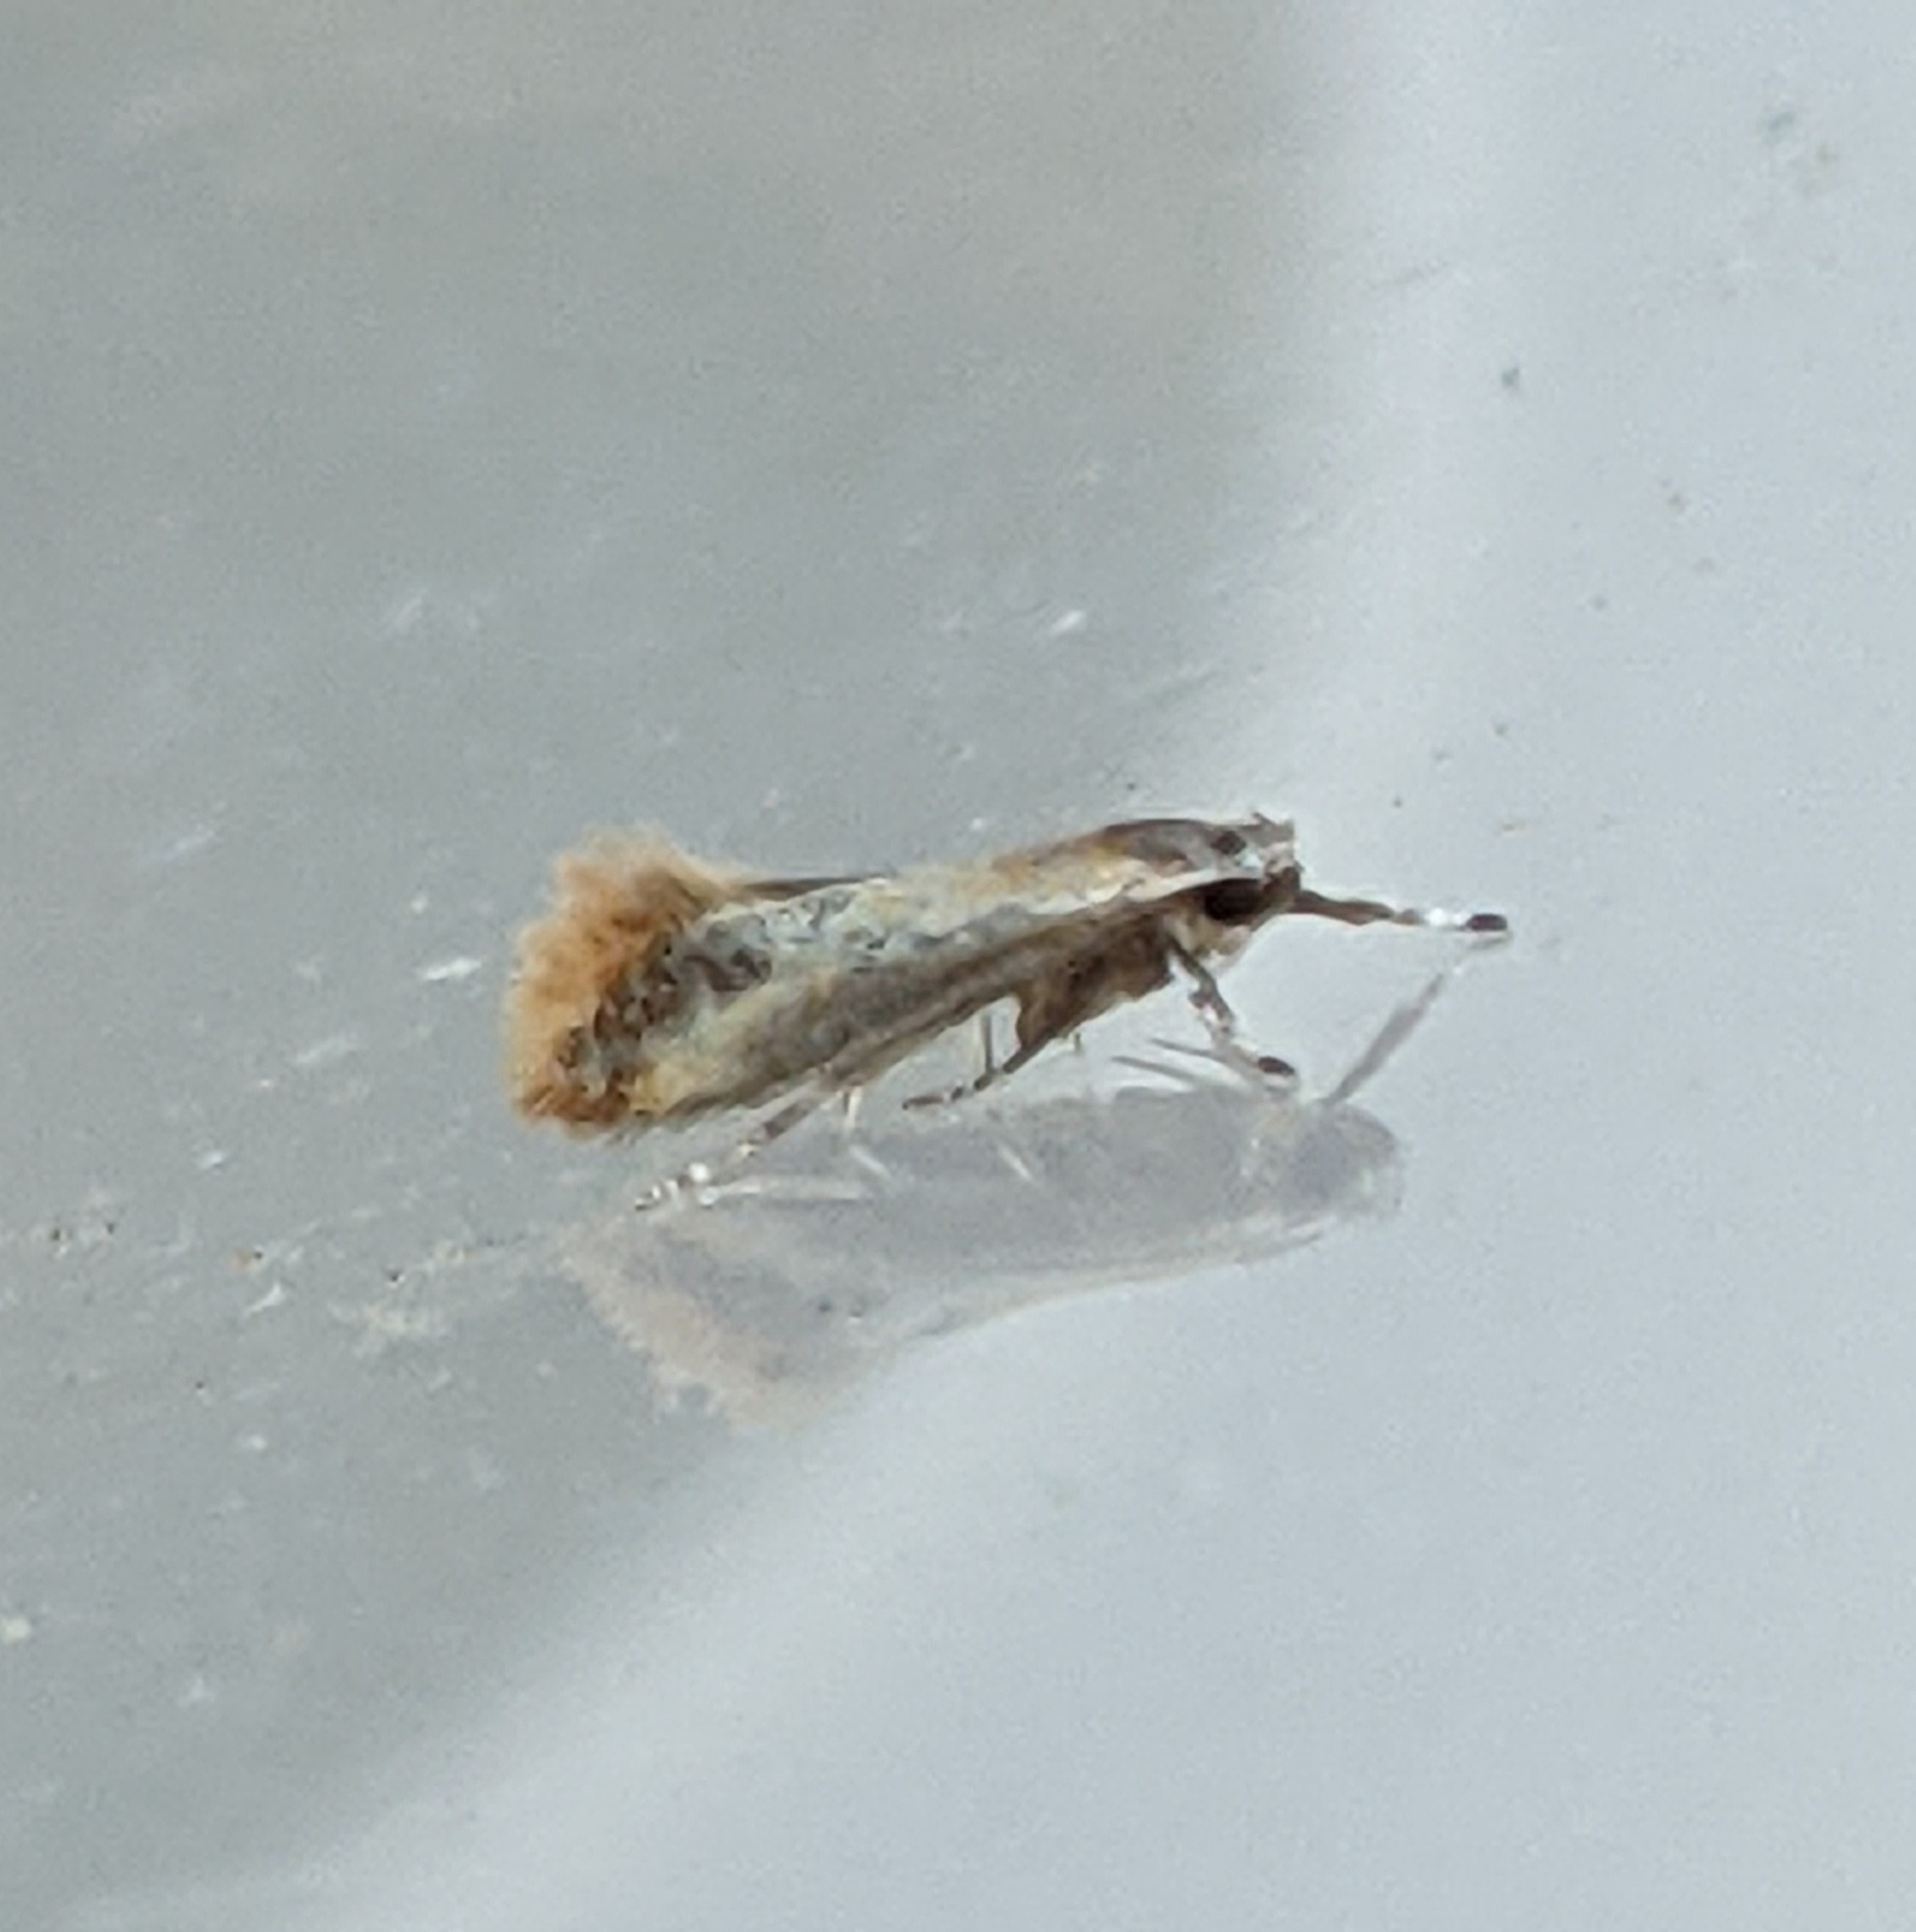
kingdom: Animalia
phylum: Arthropoda
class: Insecta
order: Lepidoptera
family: Oecophoridae
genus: Batia
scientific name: Batia lunaris
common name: Moth
